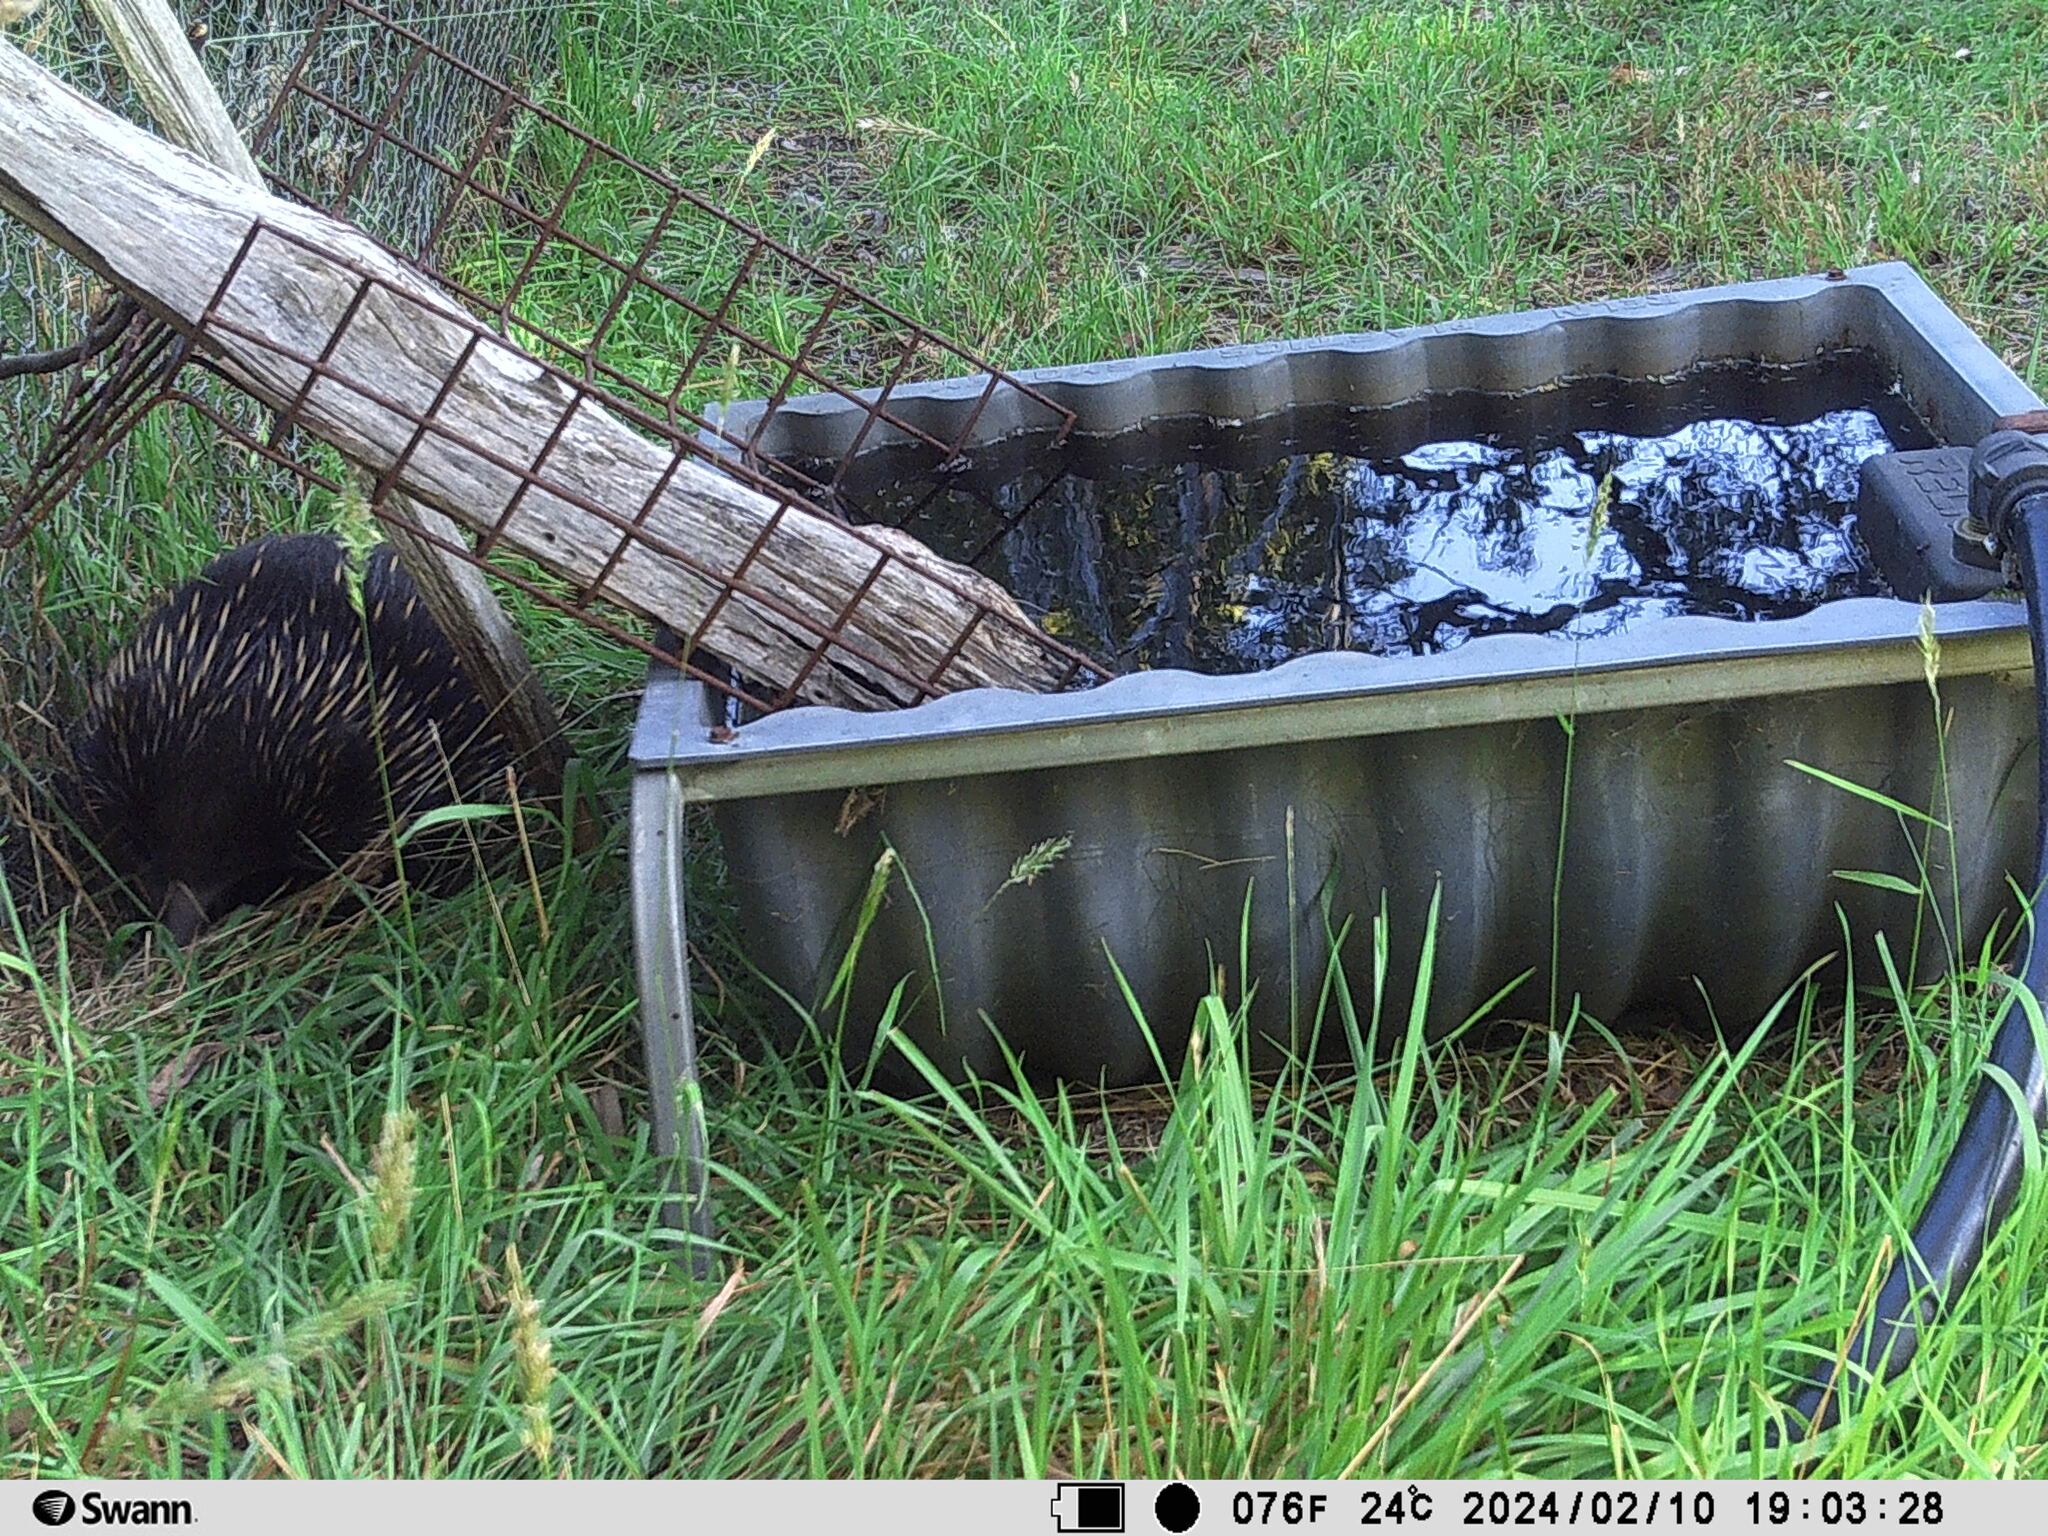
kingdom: Animalia
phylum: Chordata
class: Mammalia
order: Monotremata
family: Tachyglossidae
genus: Tachyglossus
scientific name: Tachyglossus aculeatus
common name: Short-beaked echidna
